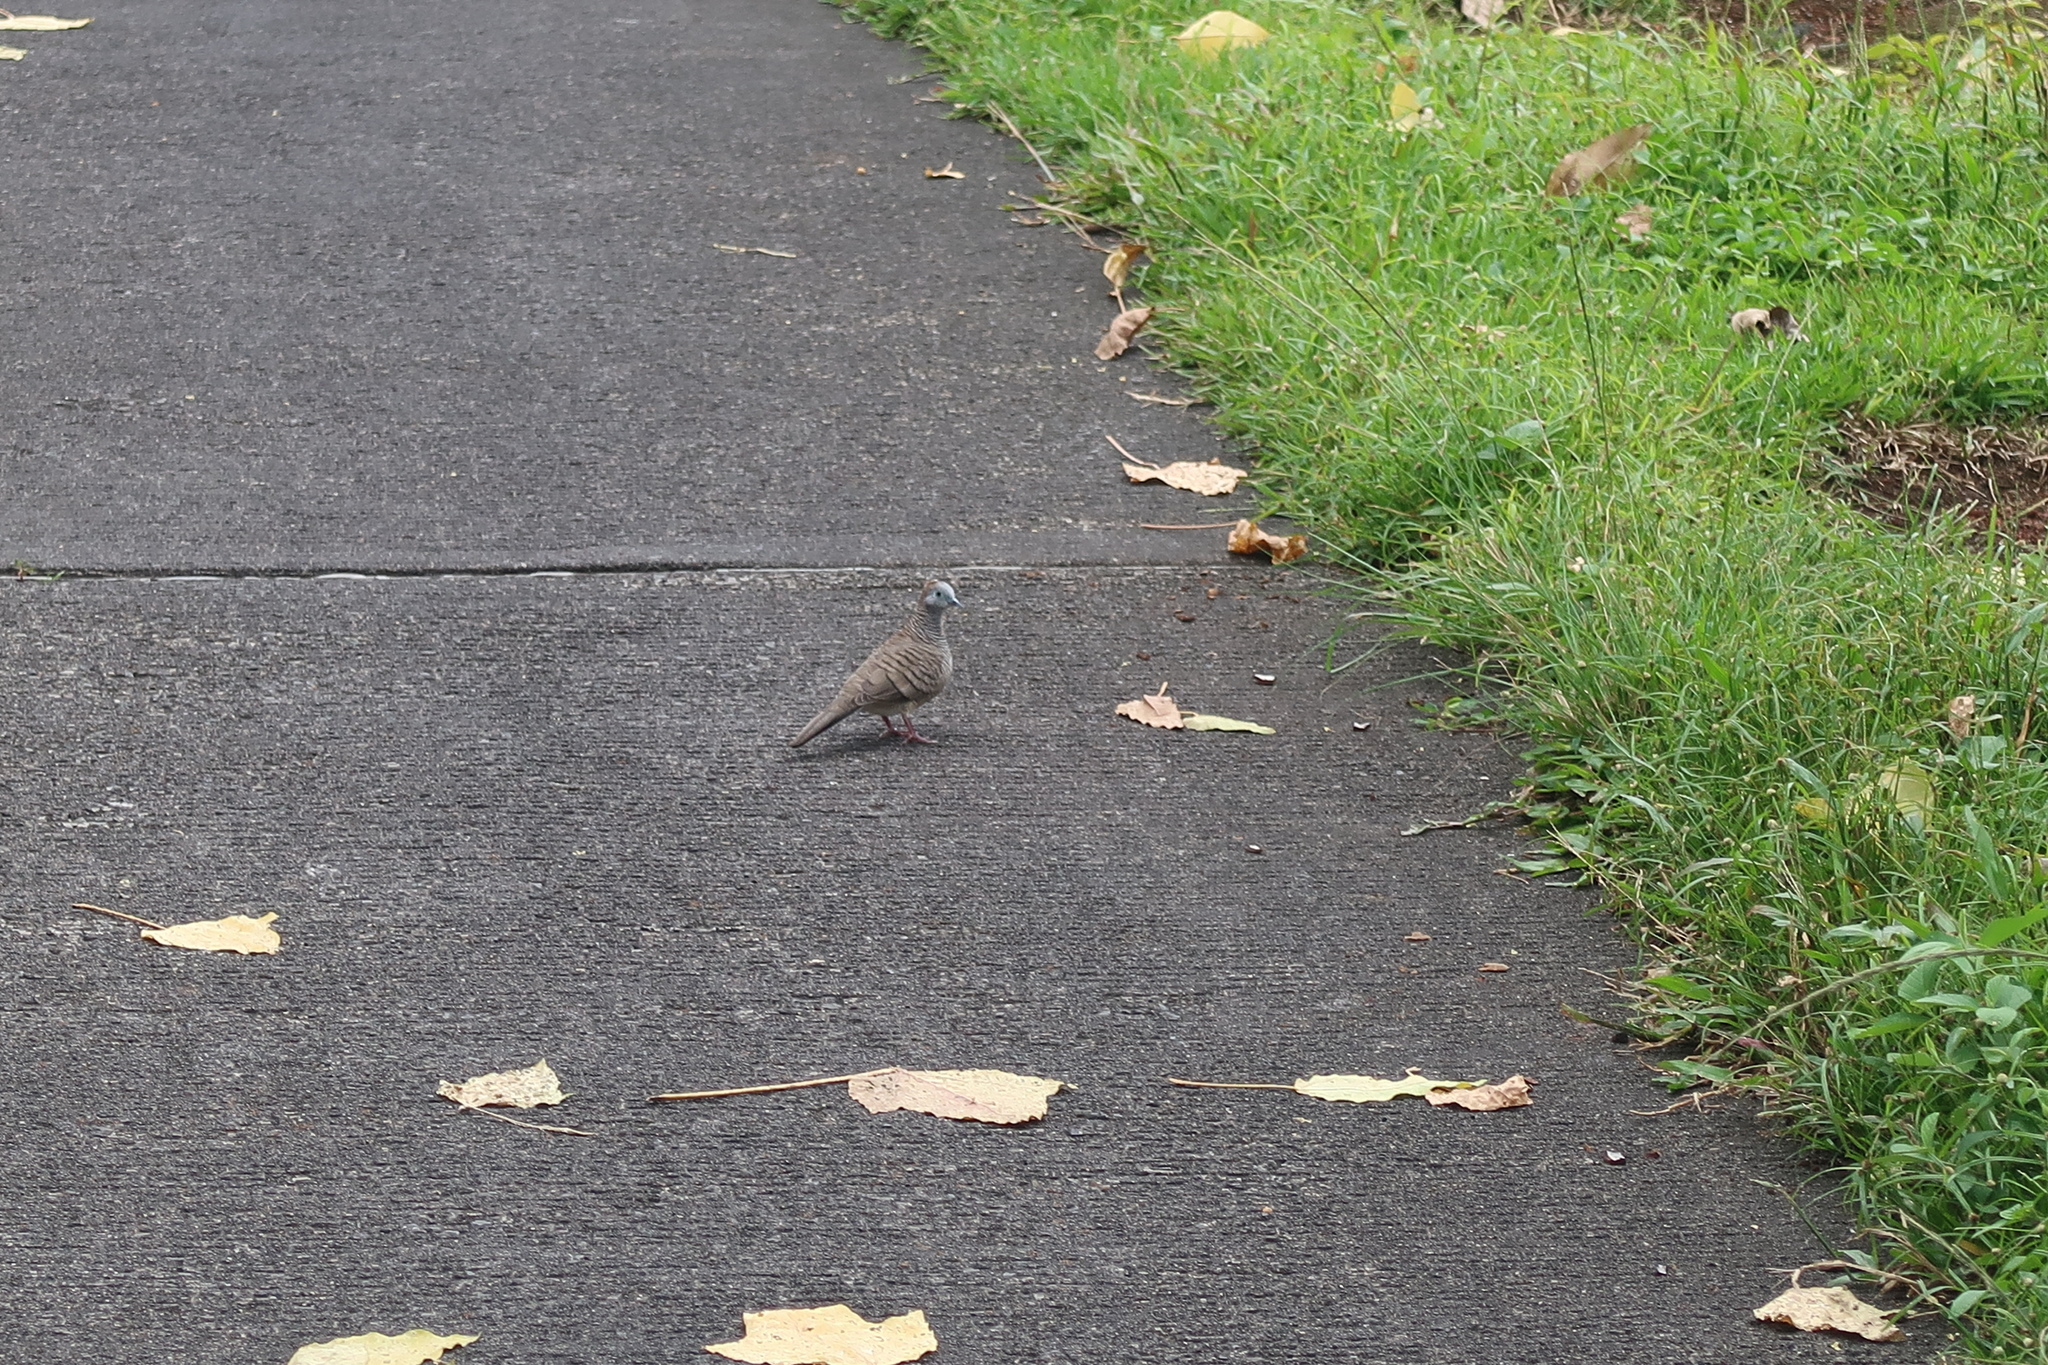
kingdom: Animalia
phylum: Chordata
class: Aves
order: Columbiformes
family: Columbidae
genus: Geopelia
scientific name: Geopelia striata
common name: Zebra dove
